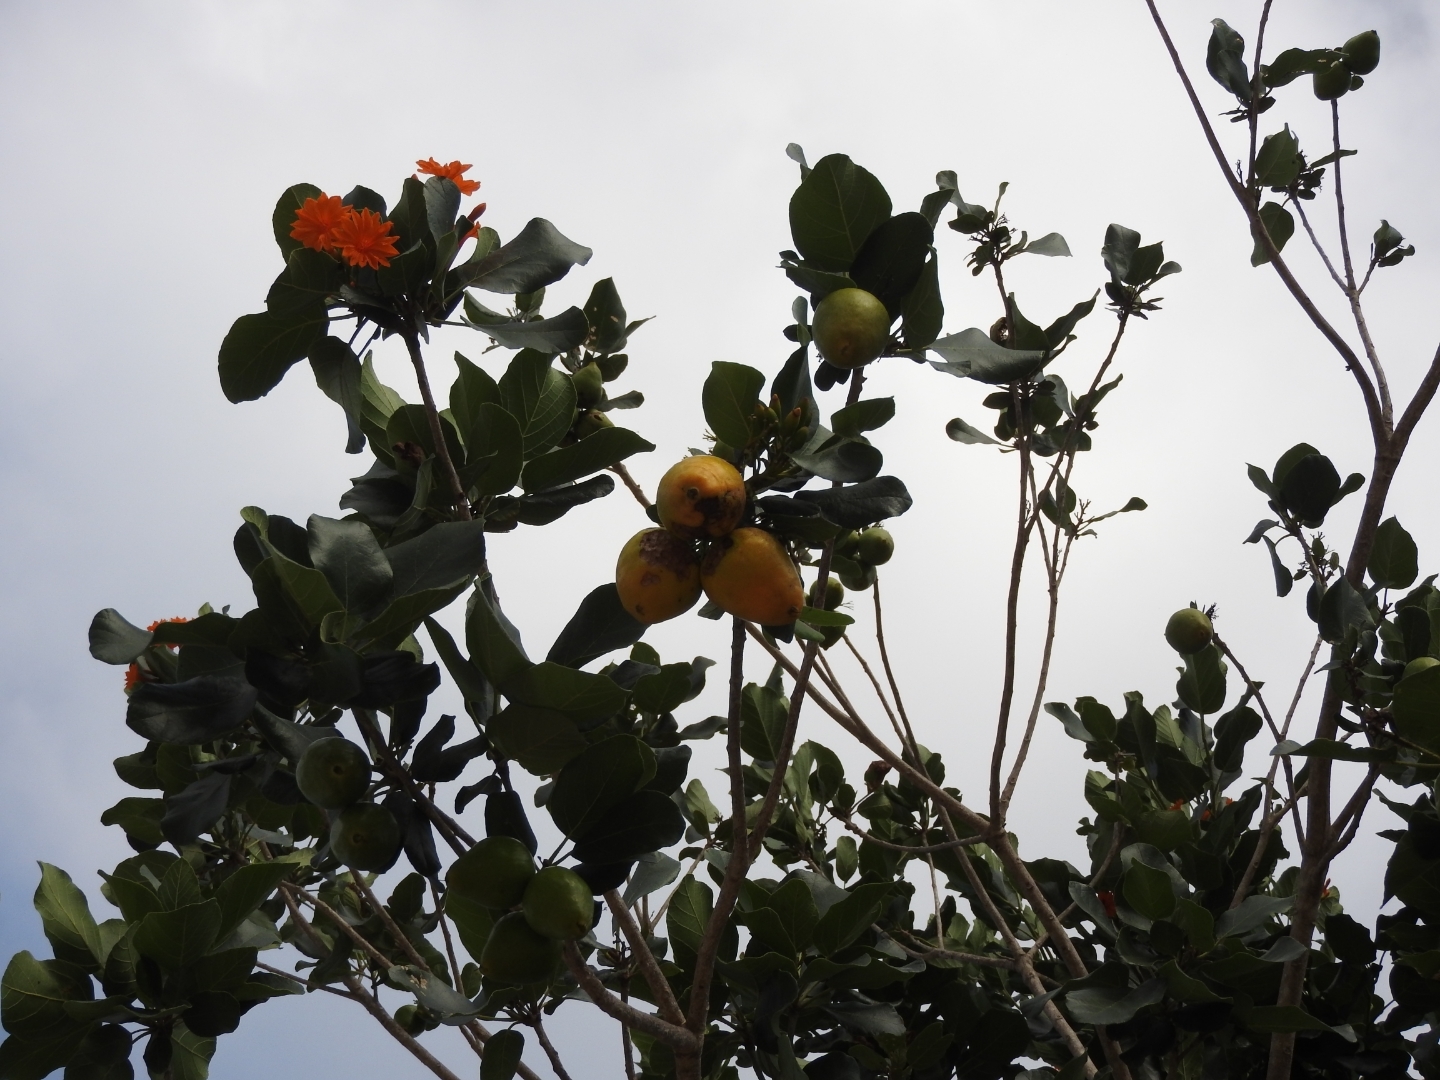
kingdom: Plantae
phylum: Tracheophyta
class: Magnoliopsida
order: Boraginales
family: Cordiaceae
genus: Cordia
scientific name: Cordia dodecandra
